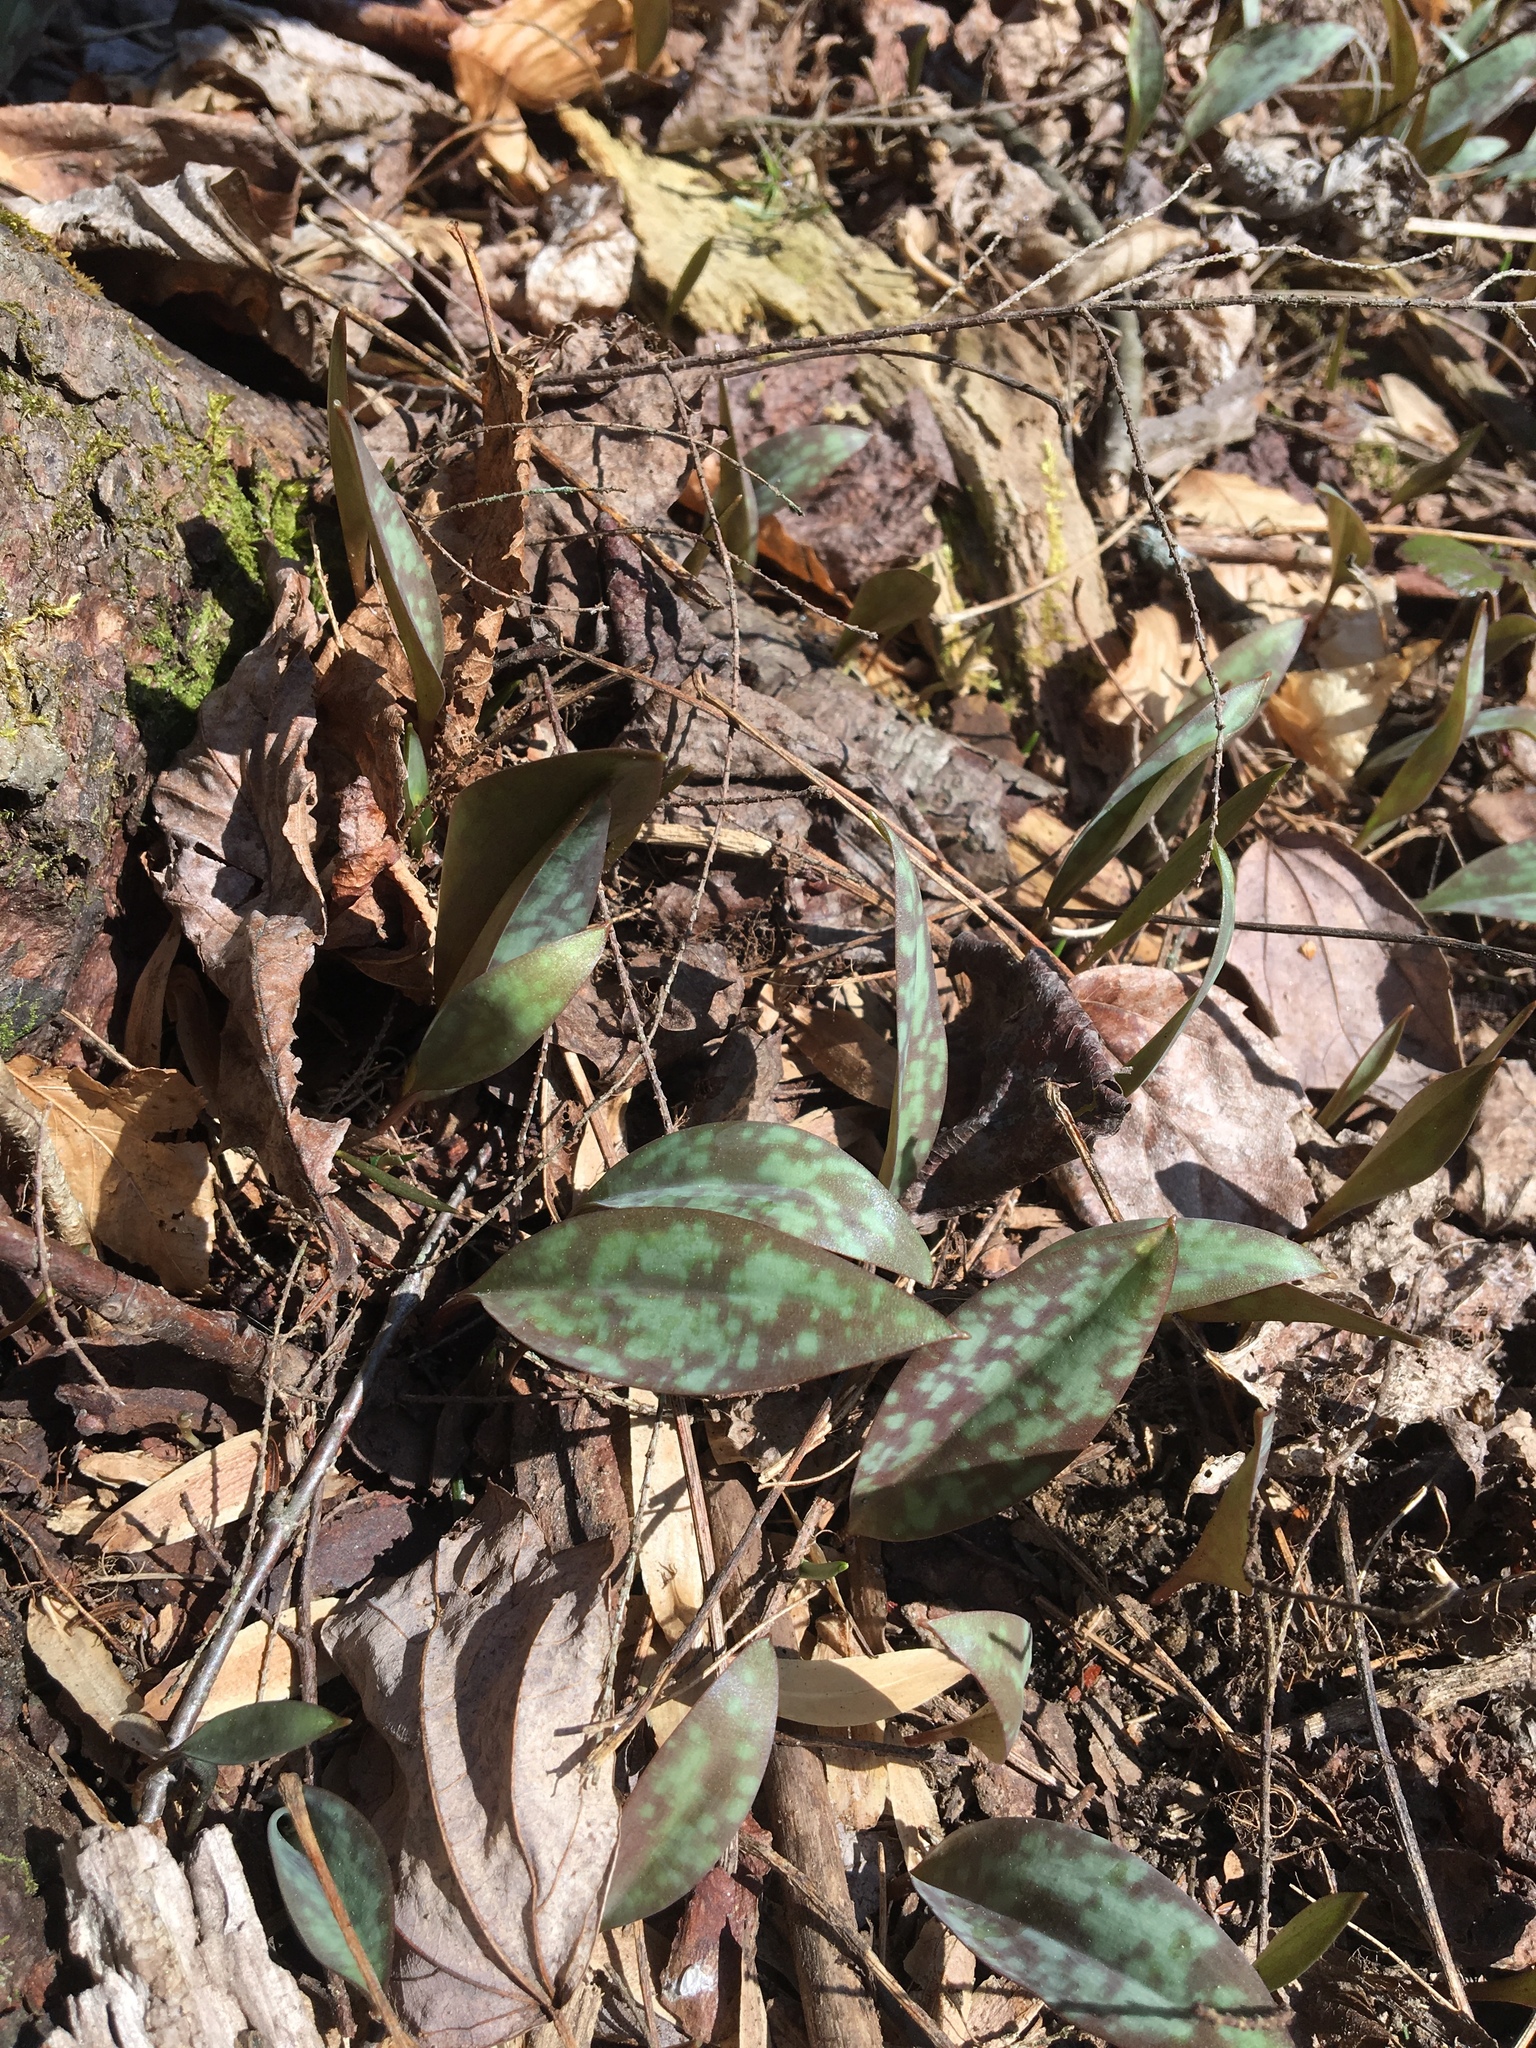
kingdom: Plantae
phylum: Tracheophyta
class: Liliopsida
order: Liliales
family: Liliaceae
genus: Erythronium
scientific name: Erythronium americanum
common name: Yellow adder's-tongue
